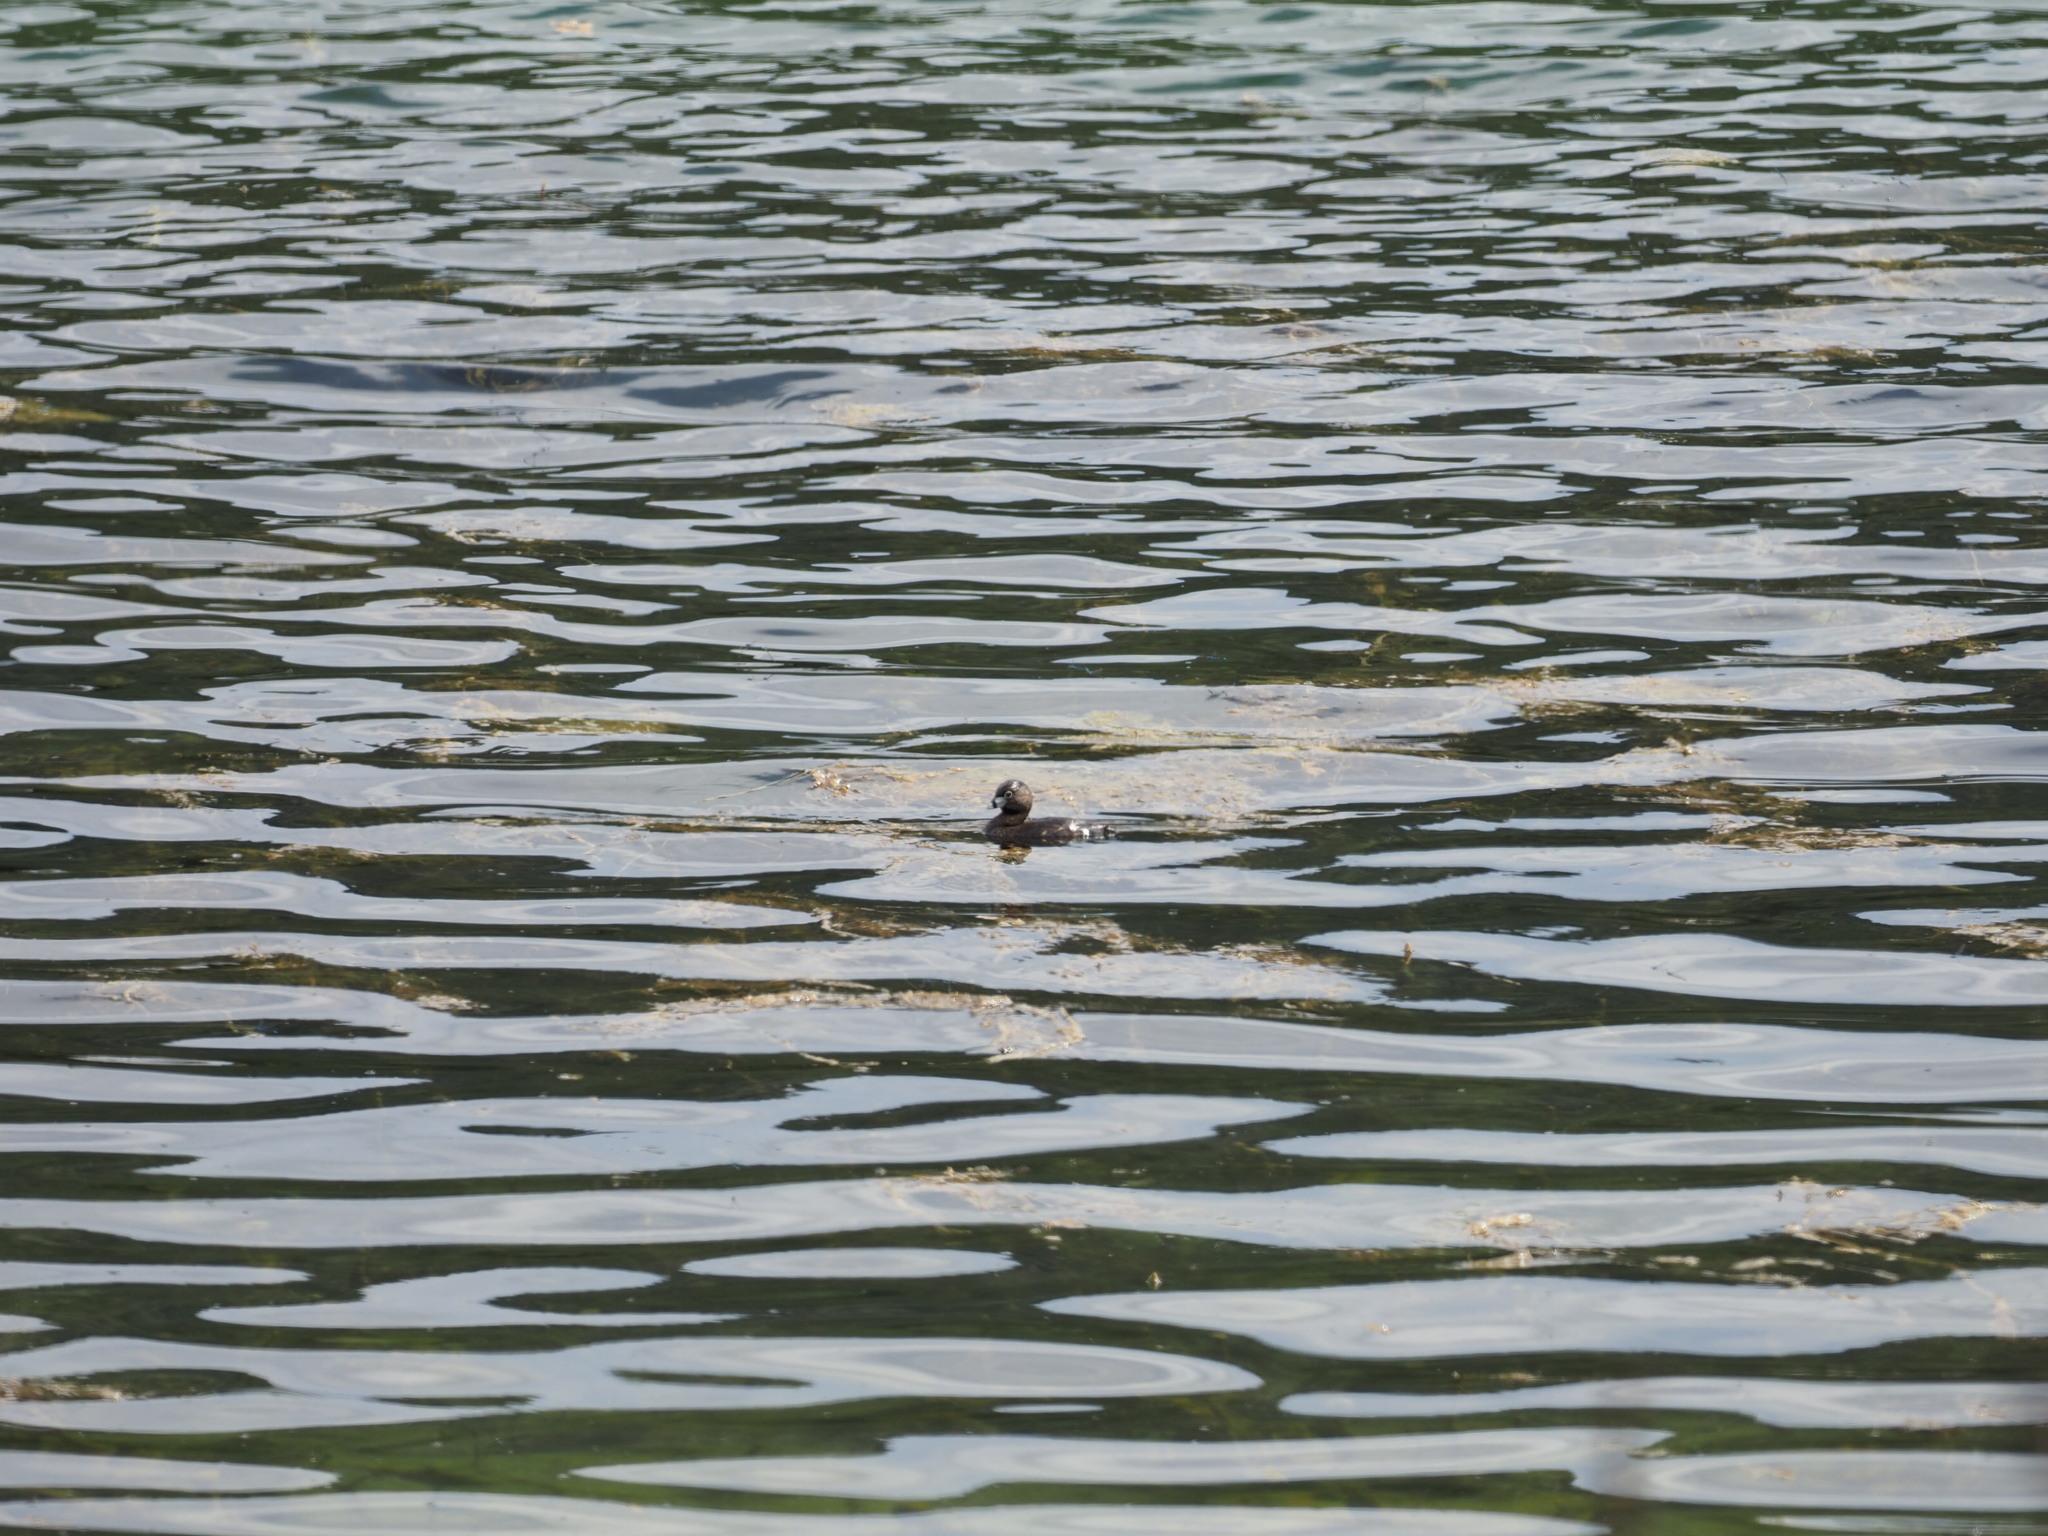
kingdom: Animalia
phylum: Chordata
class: Aves
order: Podicipediformes
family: Podicipedidae
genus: Podilymbus
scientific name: Podilymbus podiceps
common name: Pied-billed grebe
